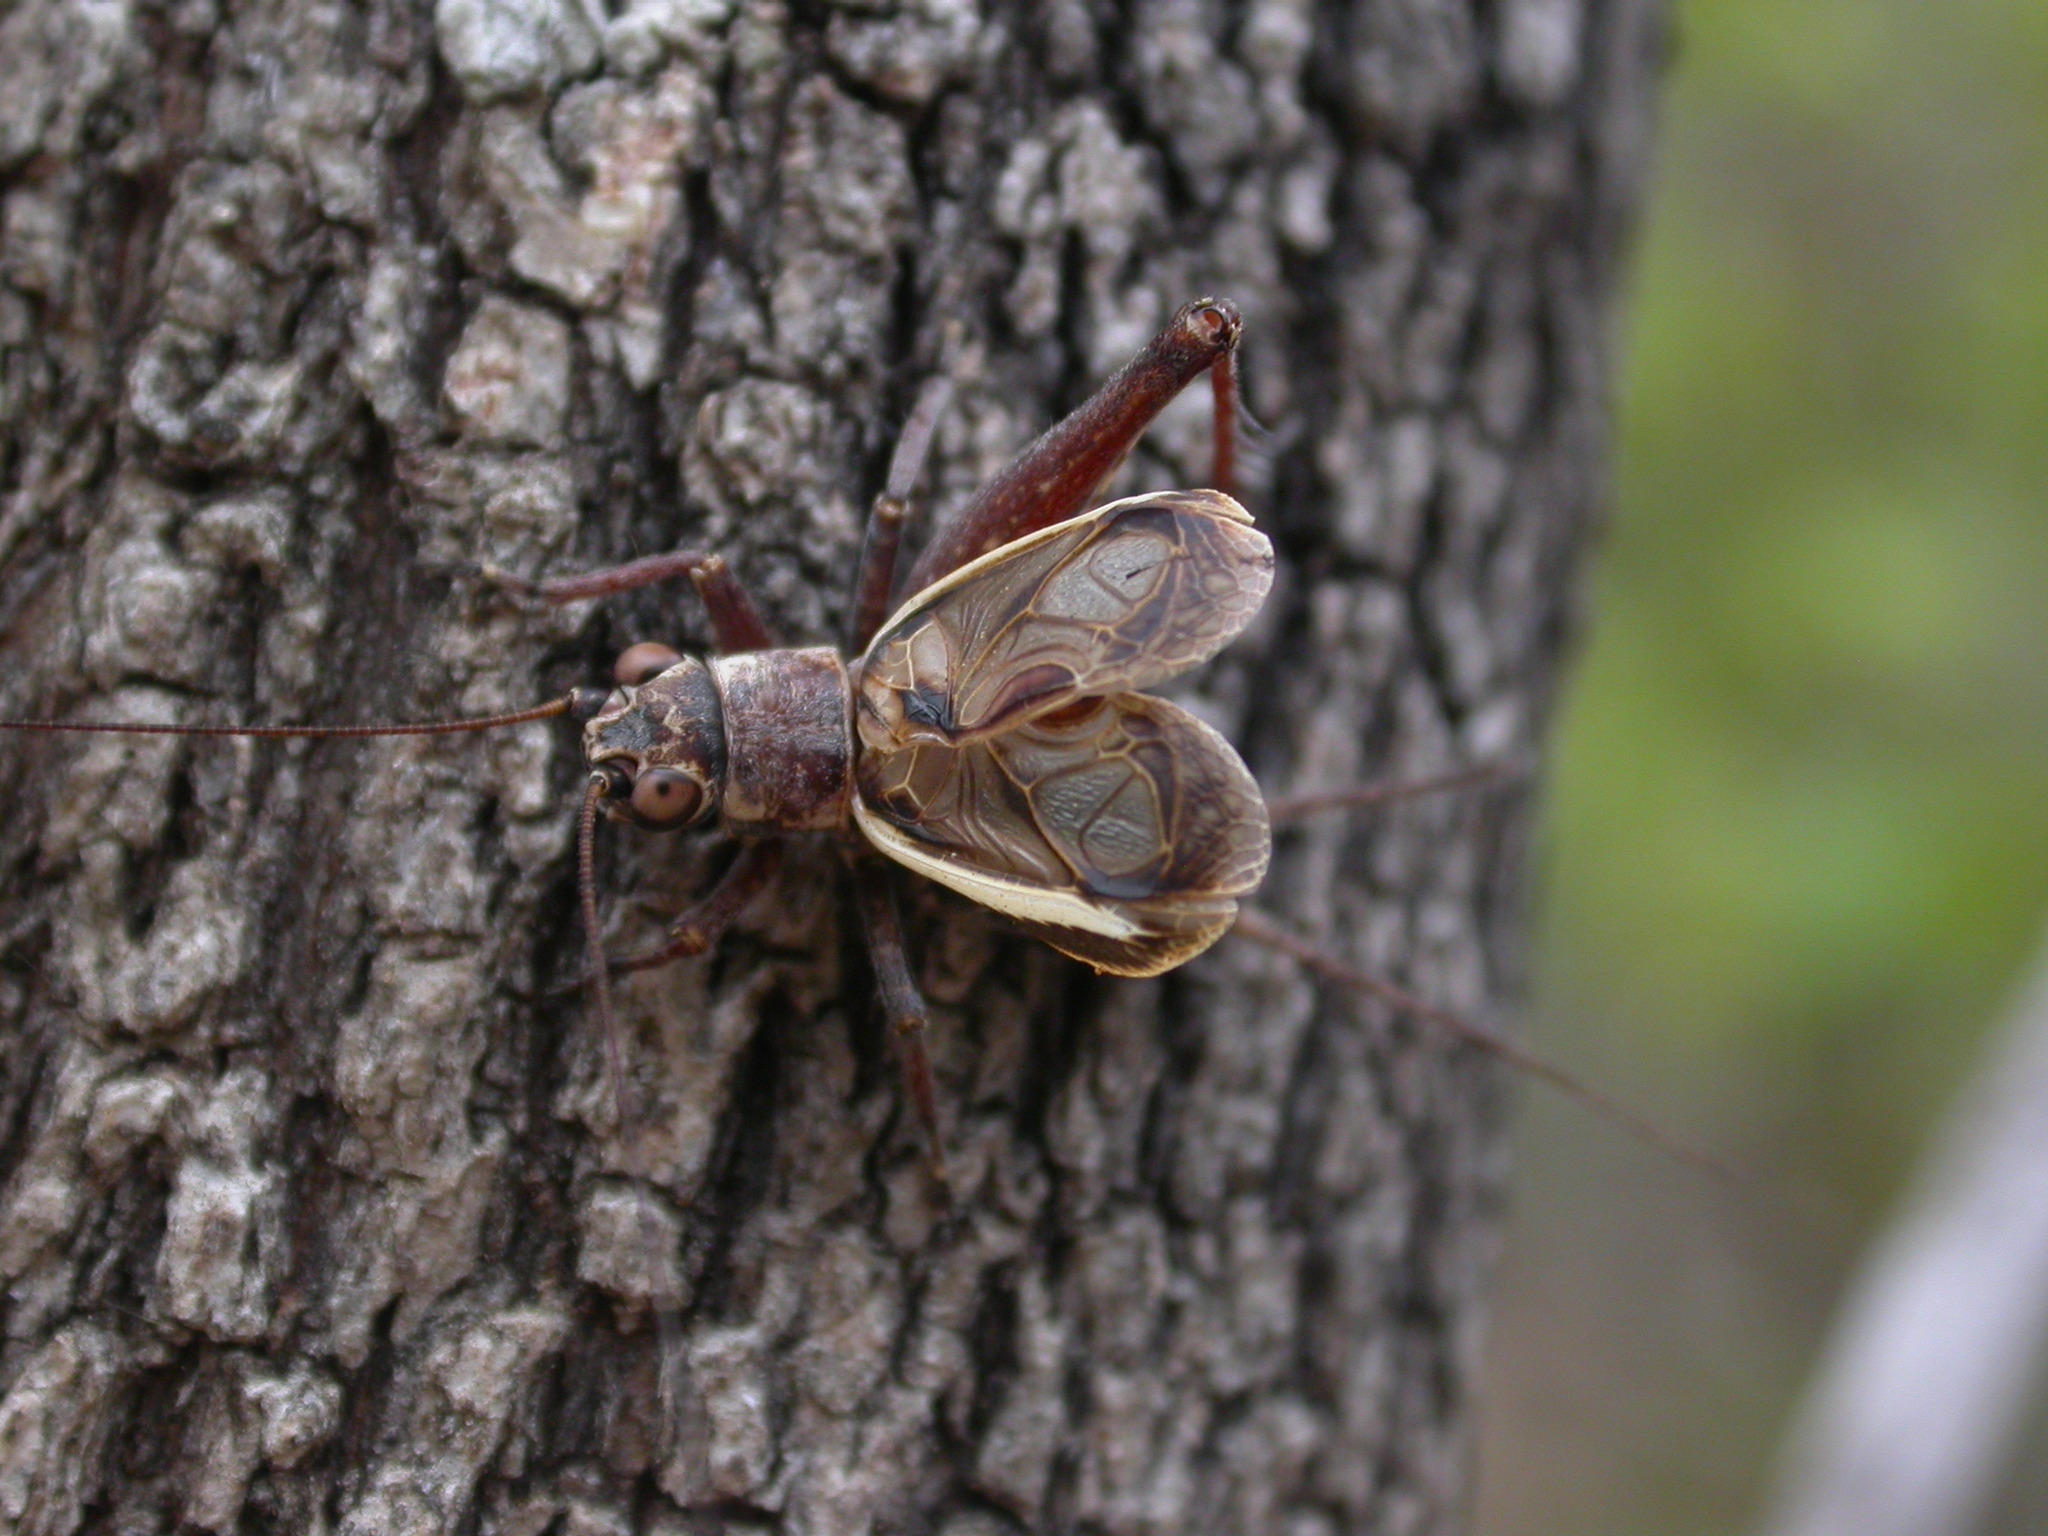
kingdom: Animalia
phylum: Arthropoda
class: Insecta
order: Orthoptera
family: Gryllidae
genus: Myara
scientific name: Myara sordida
